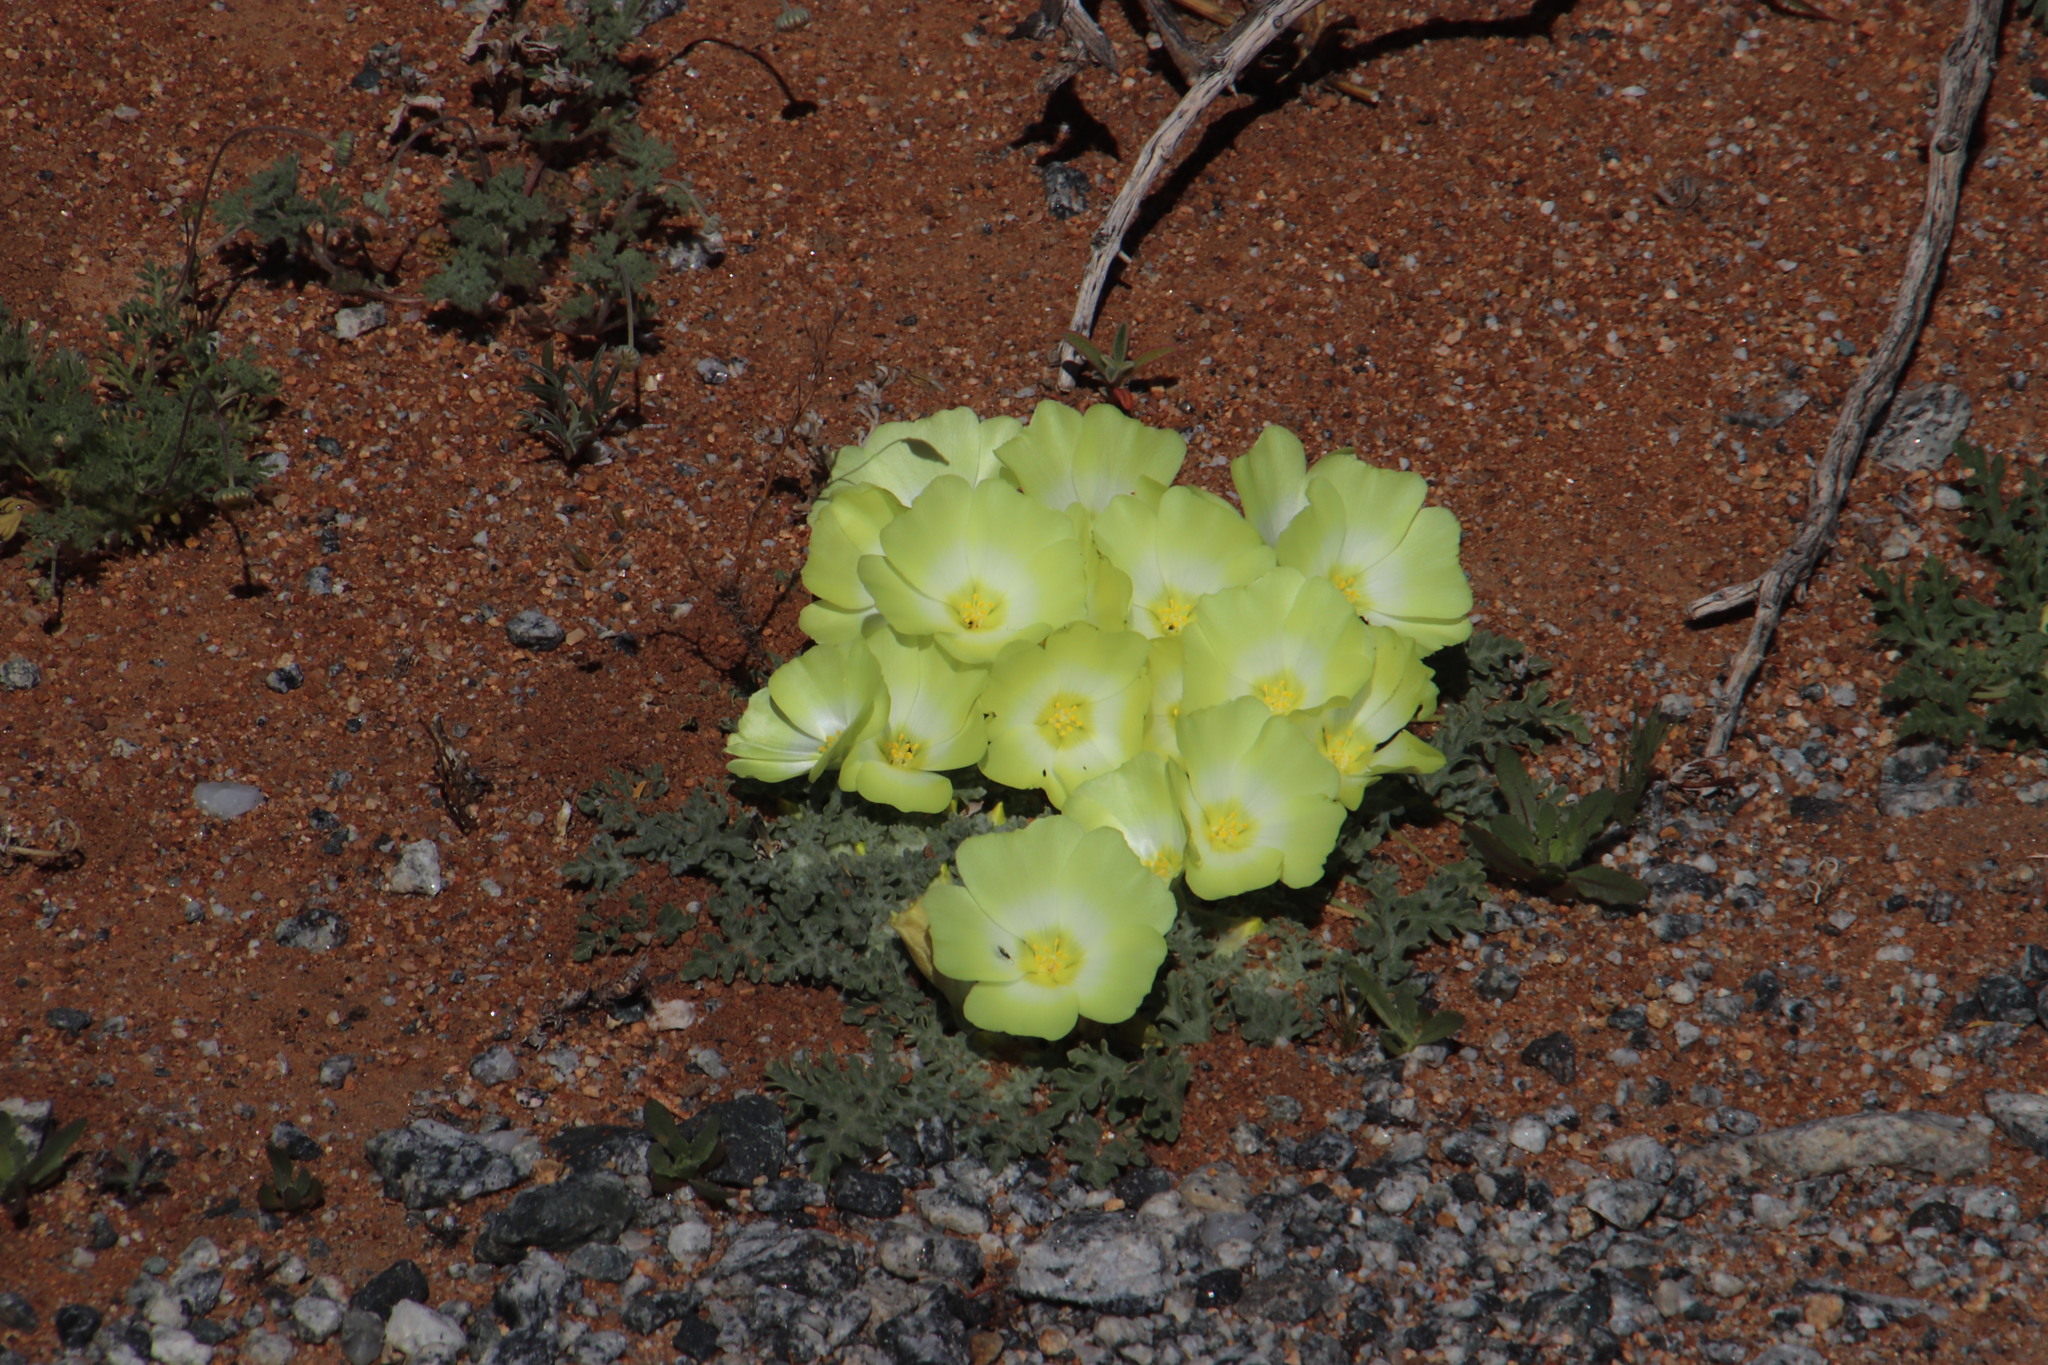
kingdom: Plantae
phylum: Tracheophyta
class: Magnoliopsida
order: Malvales
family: Neuradaceae
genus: Grielum
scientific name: Grielum humifusum
